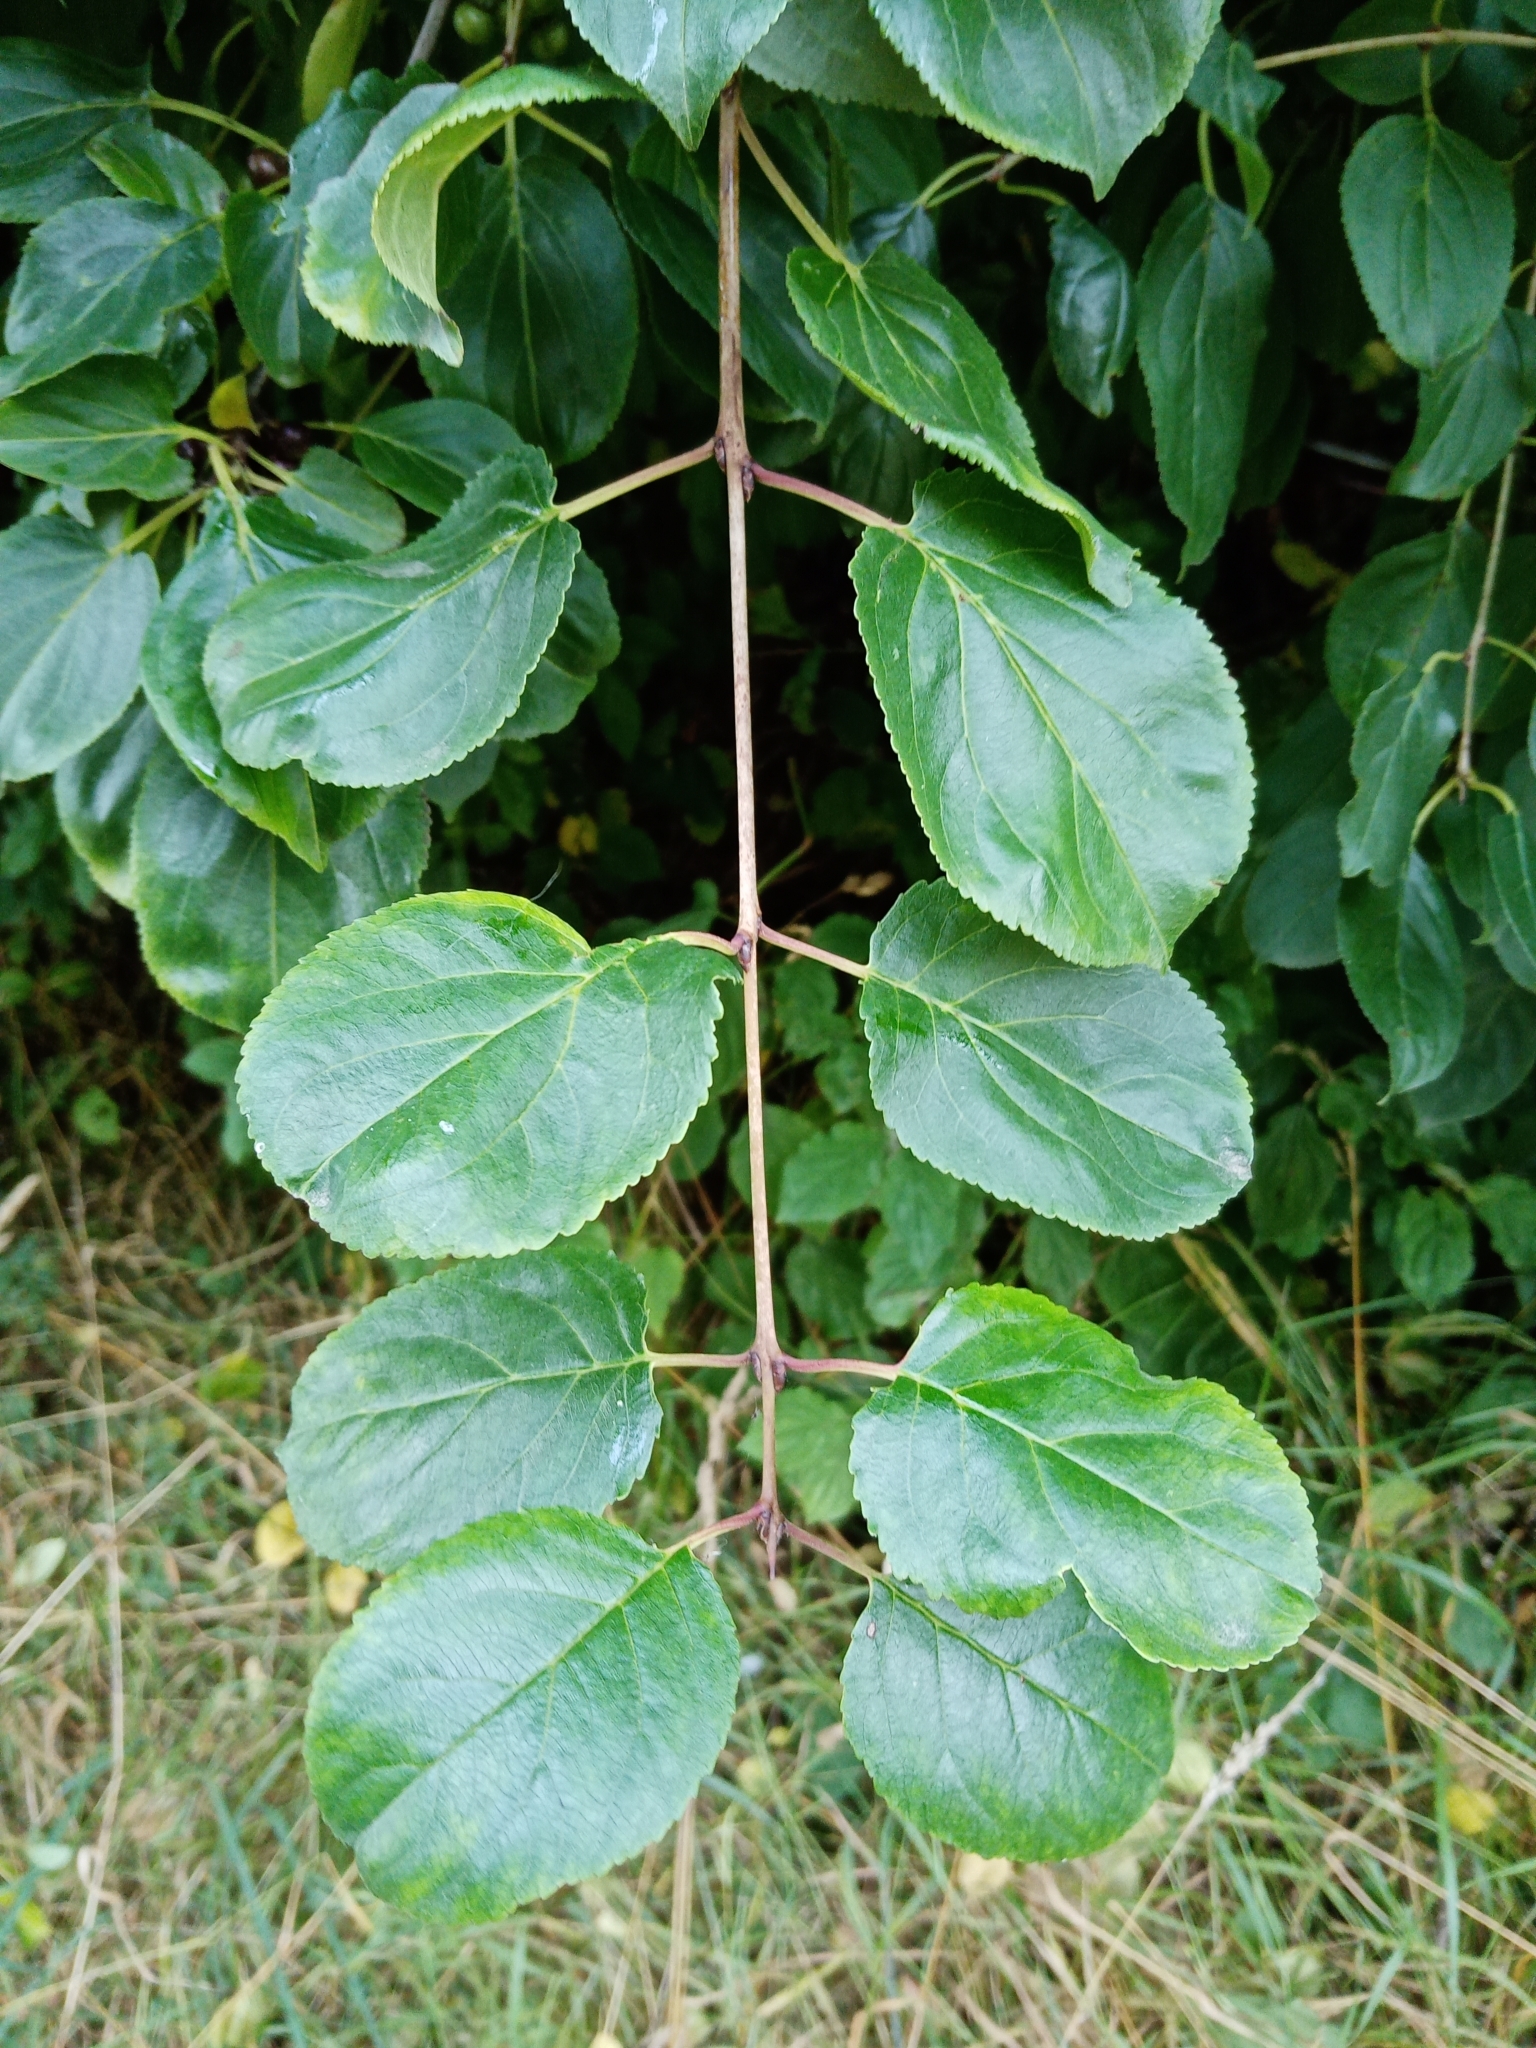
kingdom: Plantae
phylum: Tracheophyta
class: Magnoliopsida
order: Rosales
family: Rhamnaceae
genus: Rhamnus
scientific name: Rhamnus cathartica
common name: Common buckthorn
